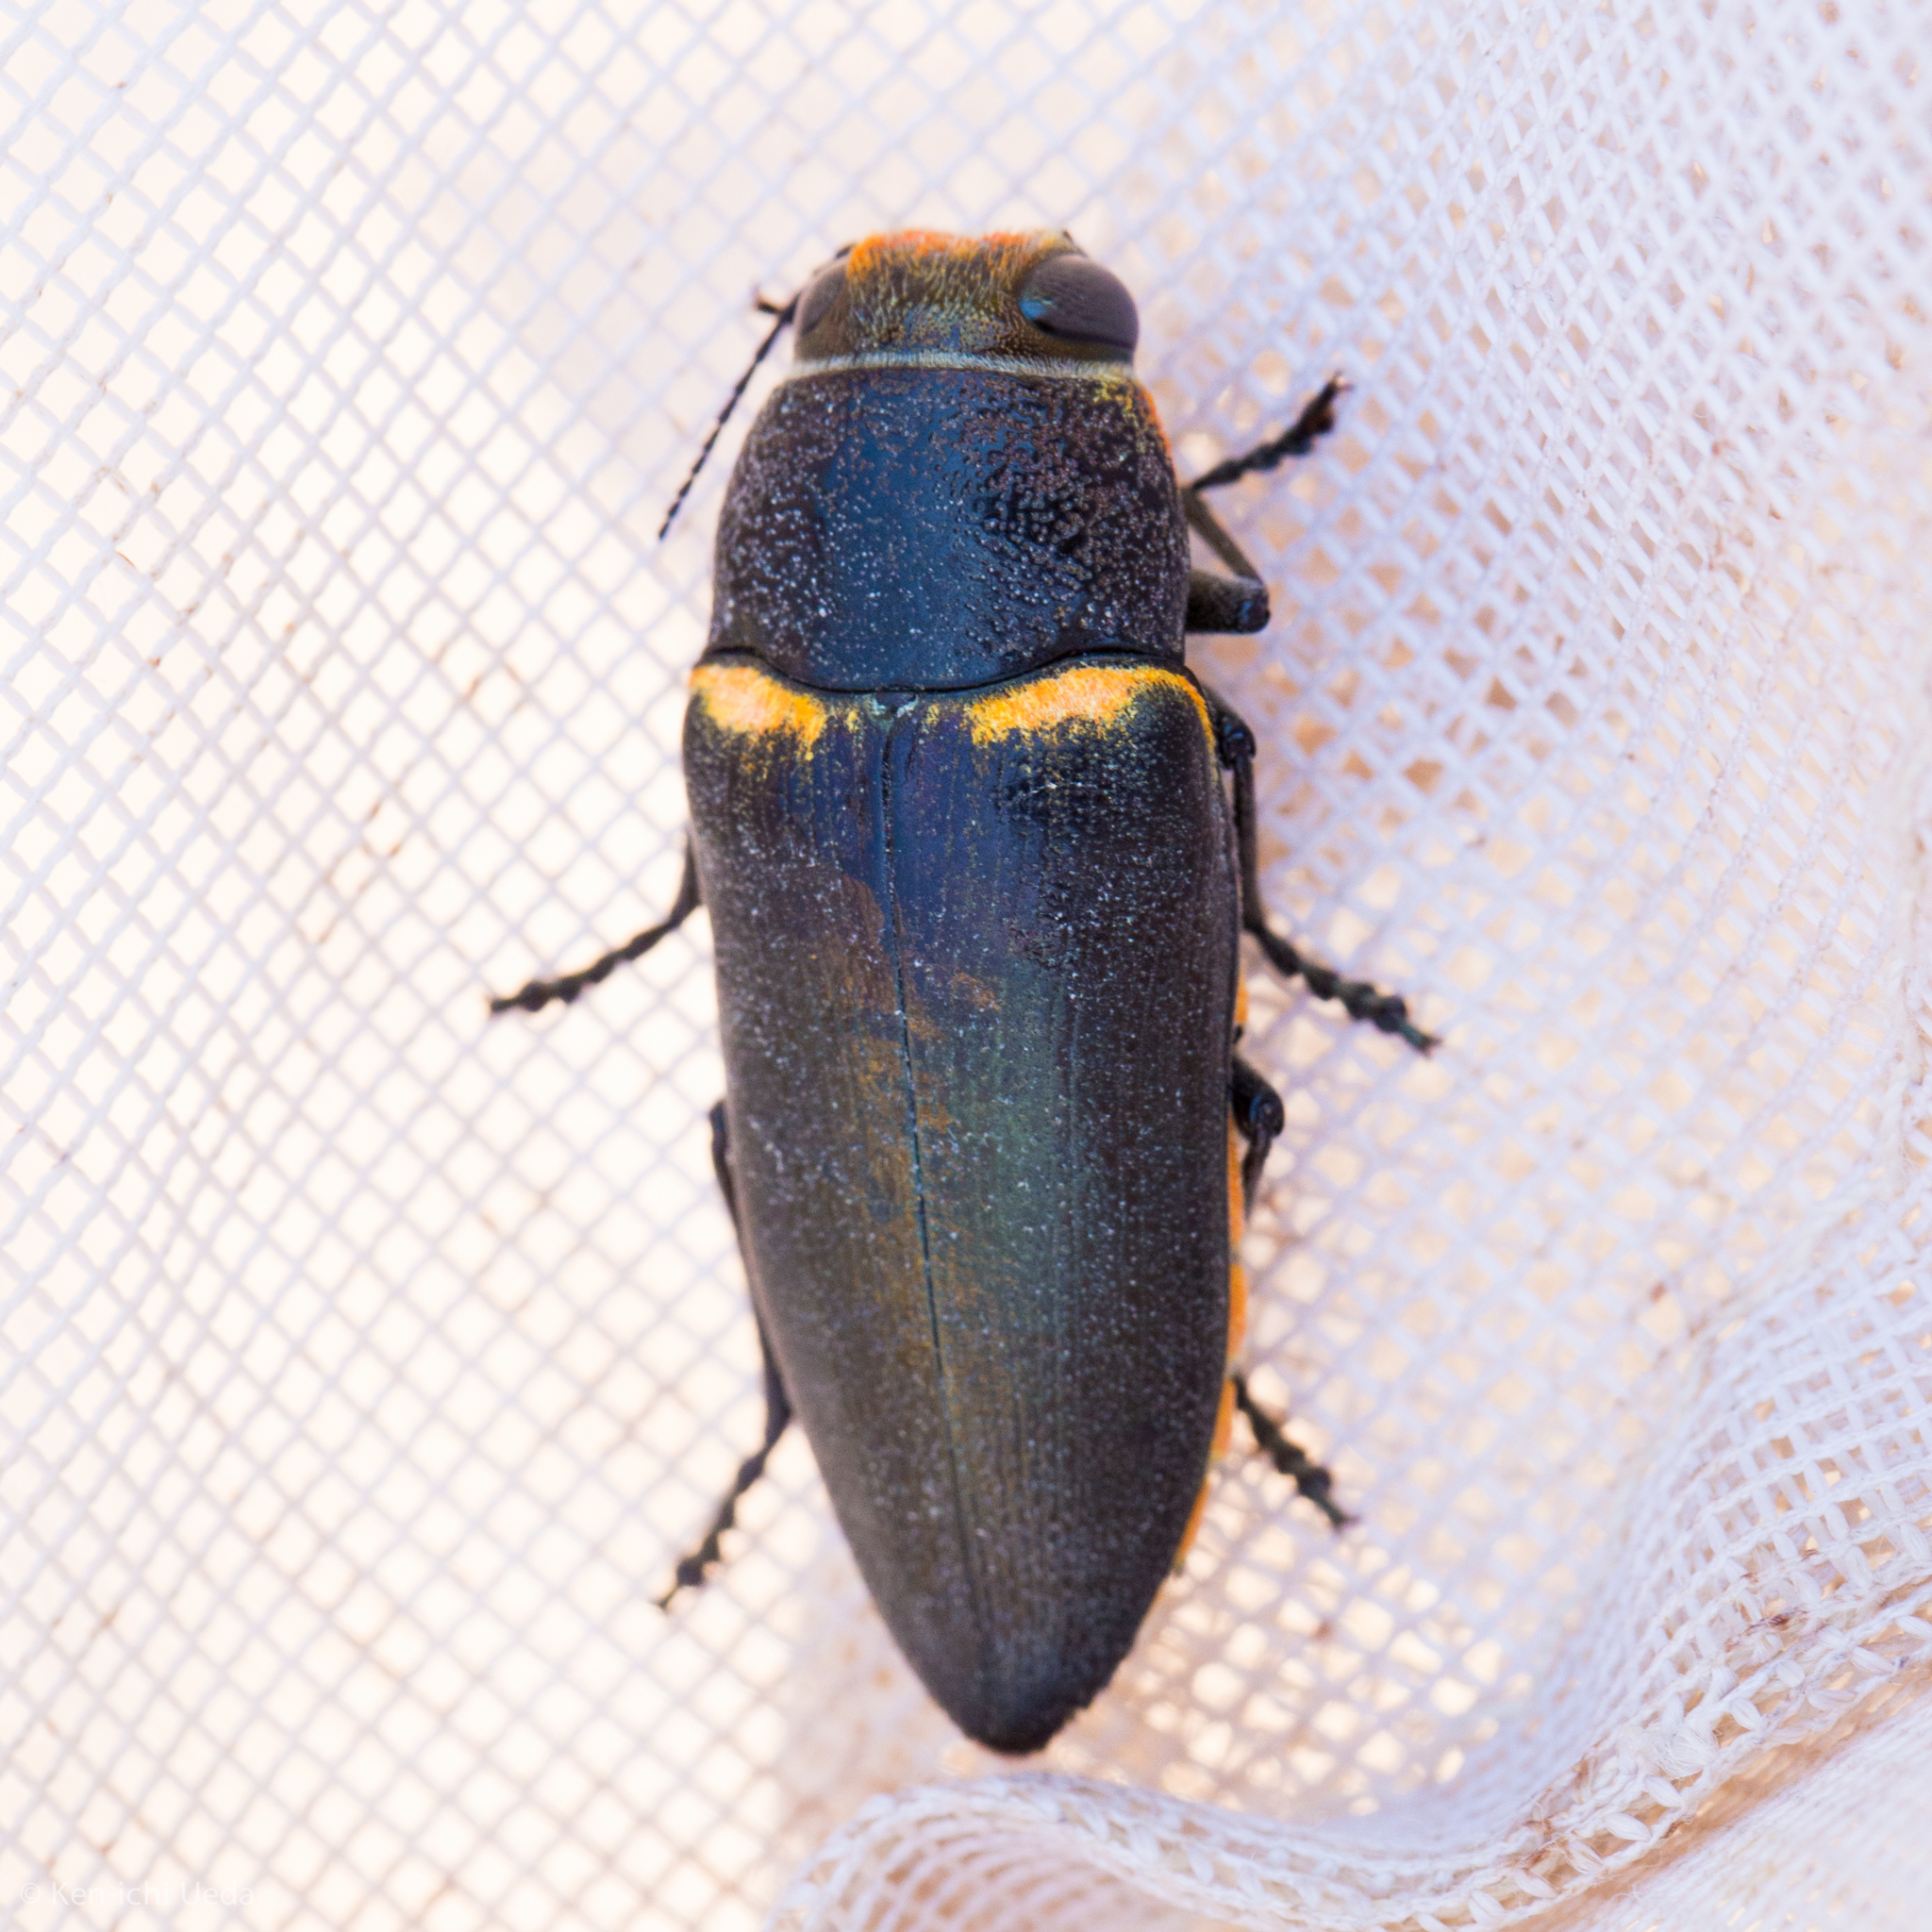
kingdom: Animalia
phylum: Arthropoda
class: Insecta
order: Coleoptera
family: Buprestidae
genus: Hippomelas
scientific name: Hippomelas sphenicus
